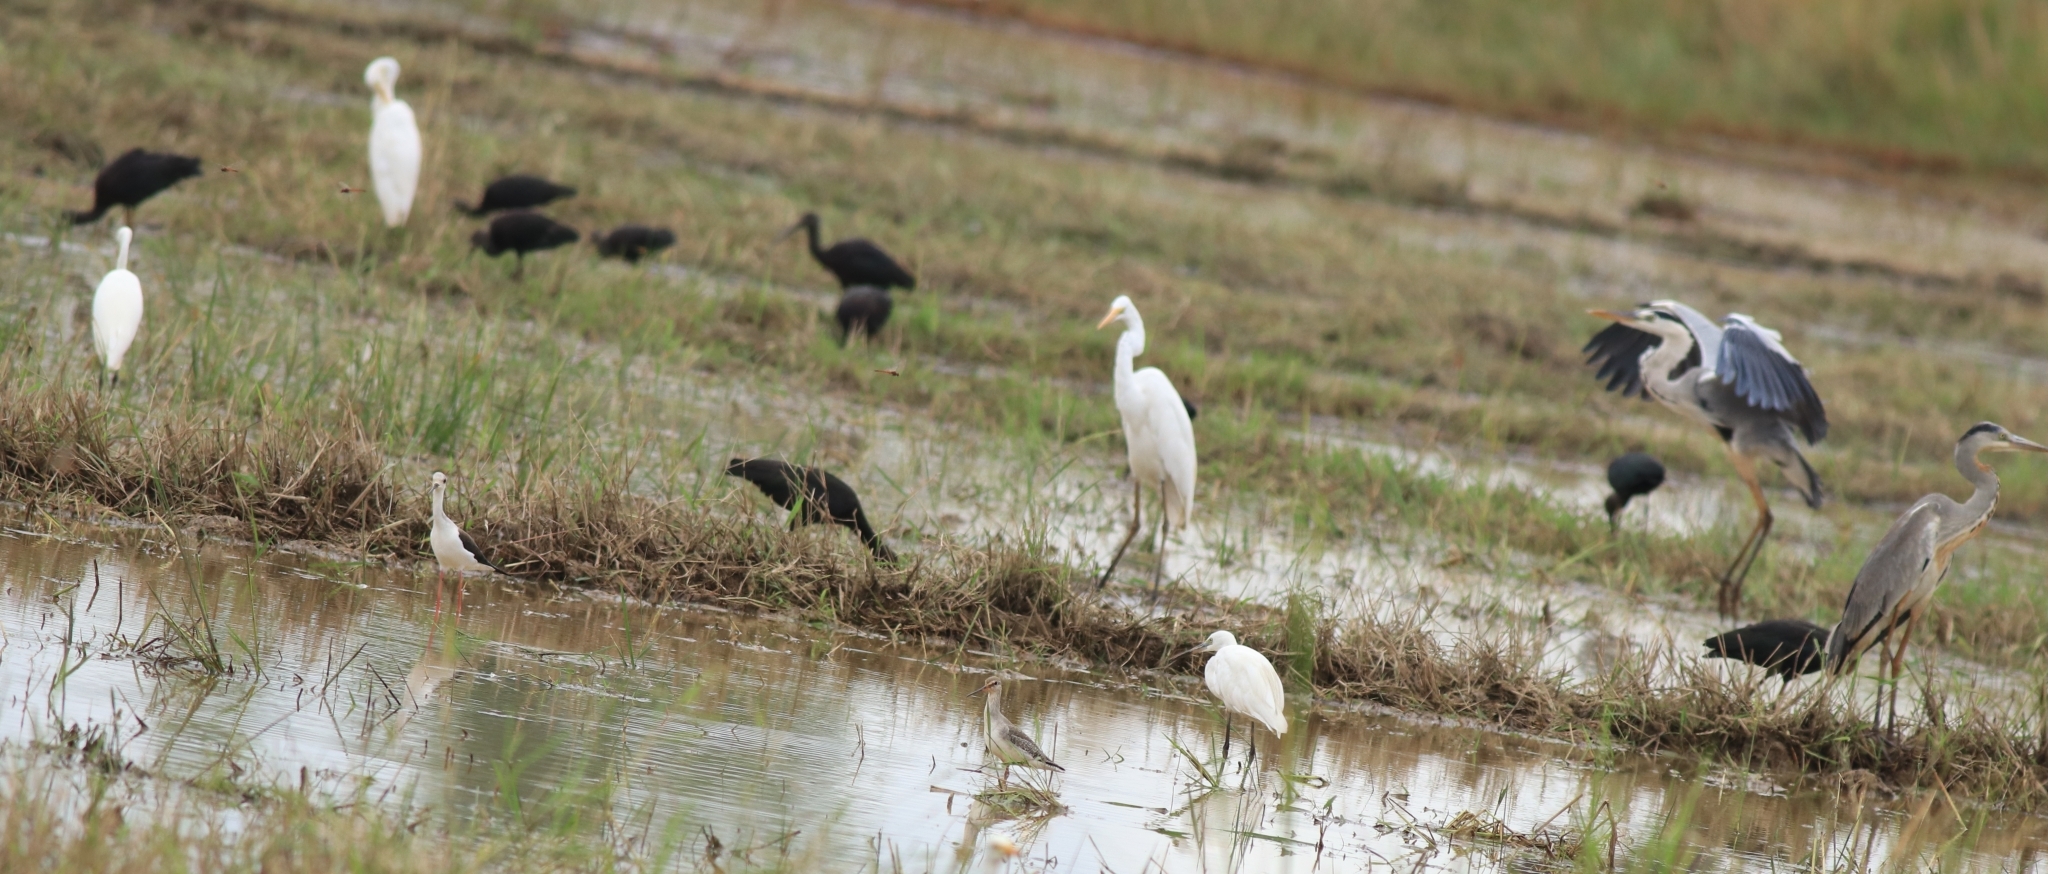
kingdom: Animalia
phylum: Chordata
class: Aves
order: Pelecaniformes
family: Ardeidae
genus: Ardea
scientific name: Ardea cinerea
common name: Grey heron
